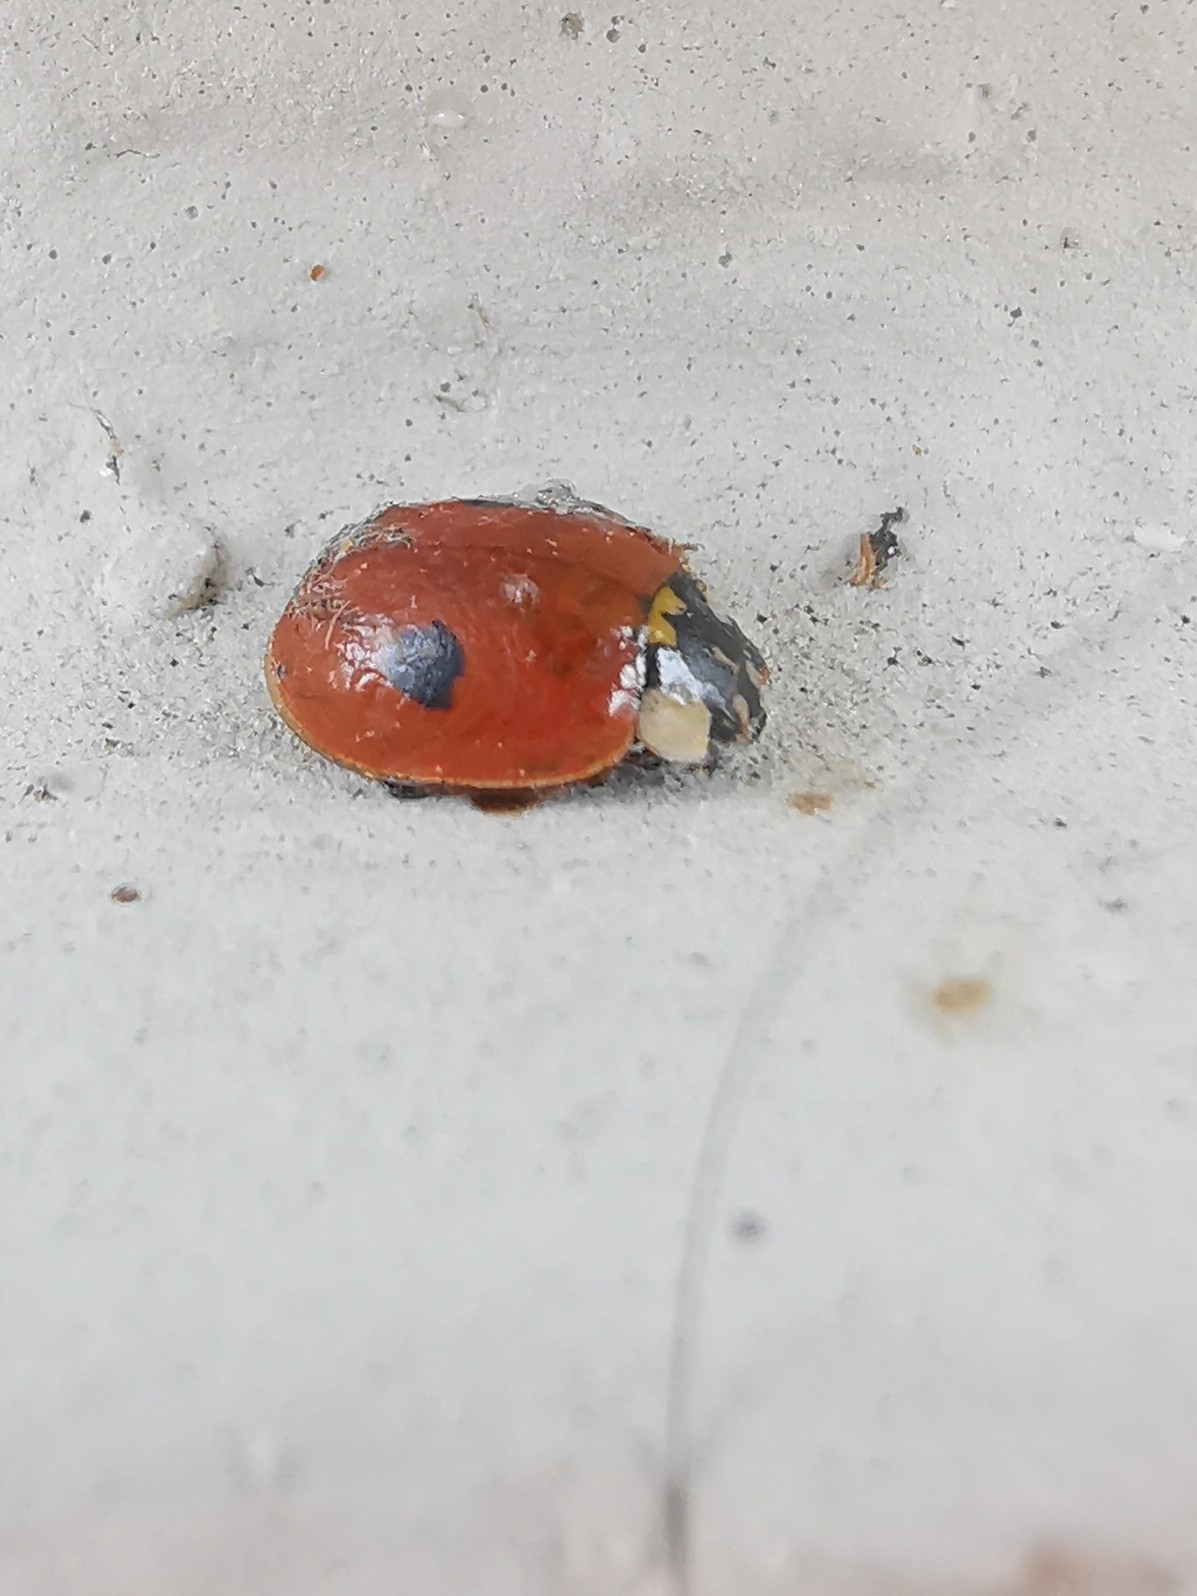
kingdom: Animalia
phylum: Arthropoda
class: Insecta
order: Coleoptera
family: Coccinellidae
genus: Adalia
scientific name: Adalia bipunctata
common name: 2-spot ladybird
